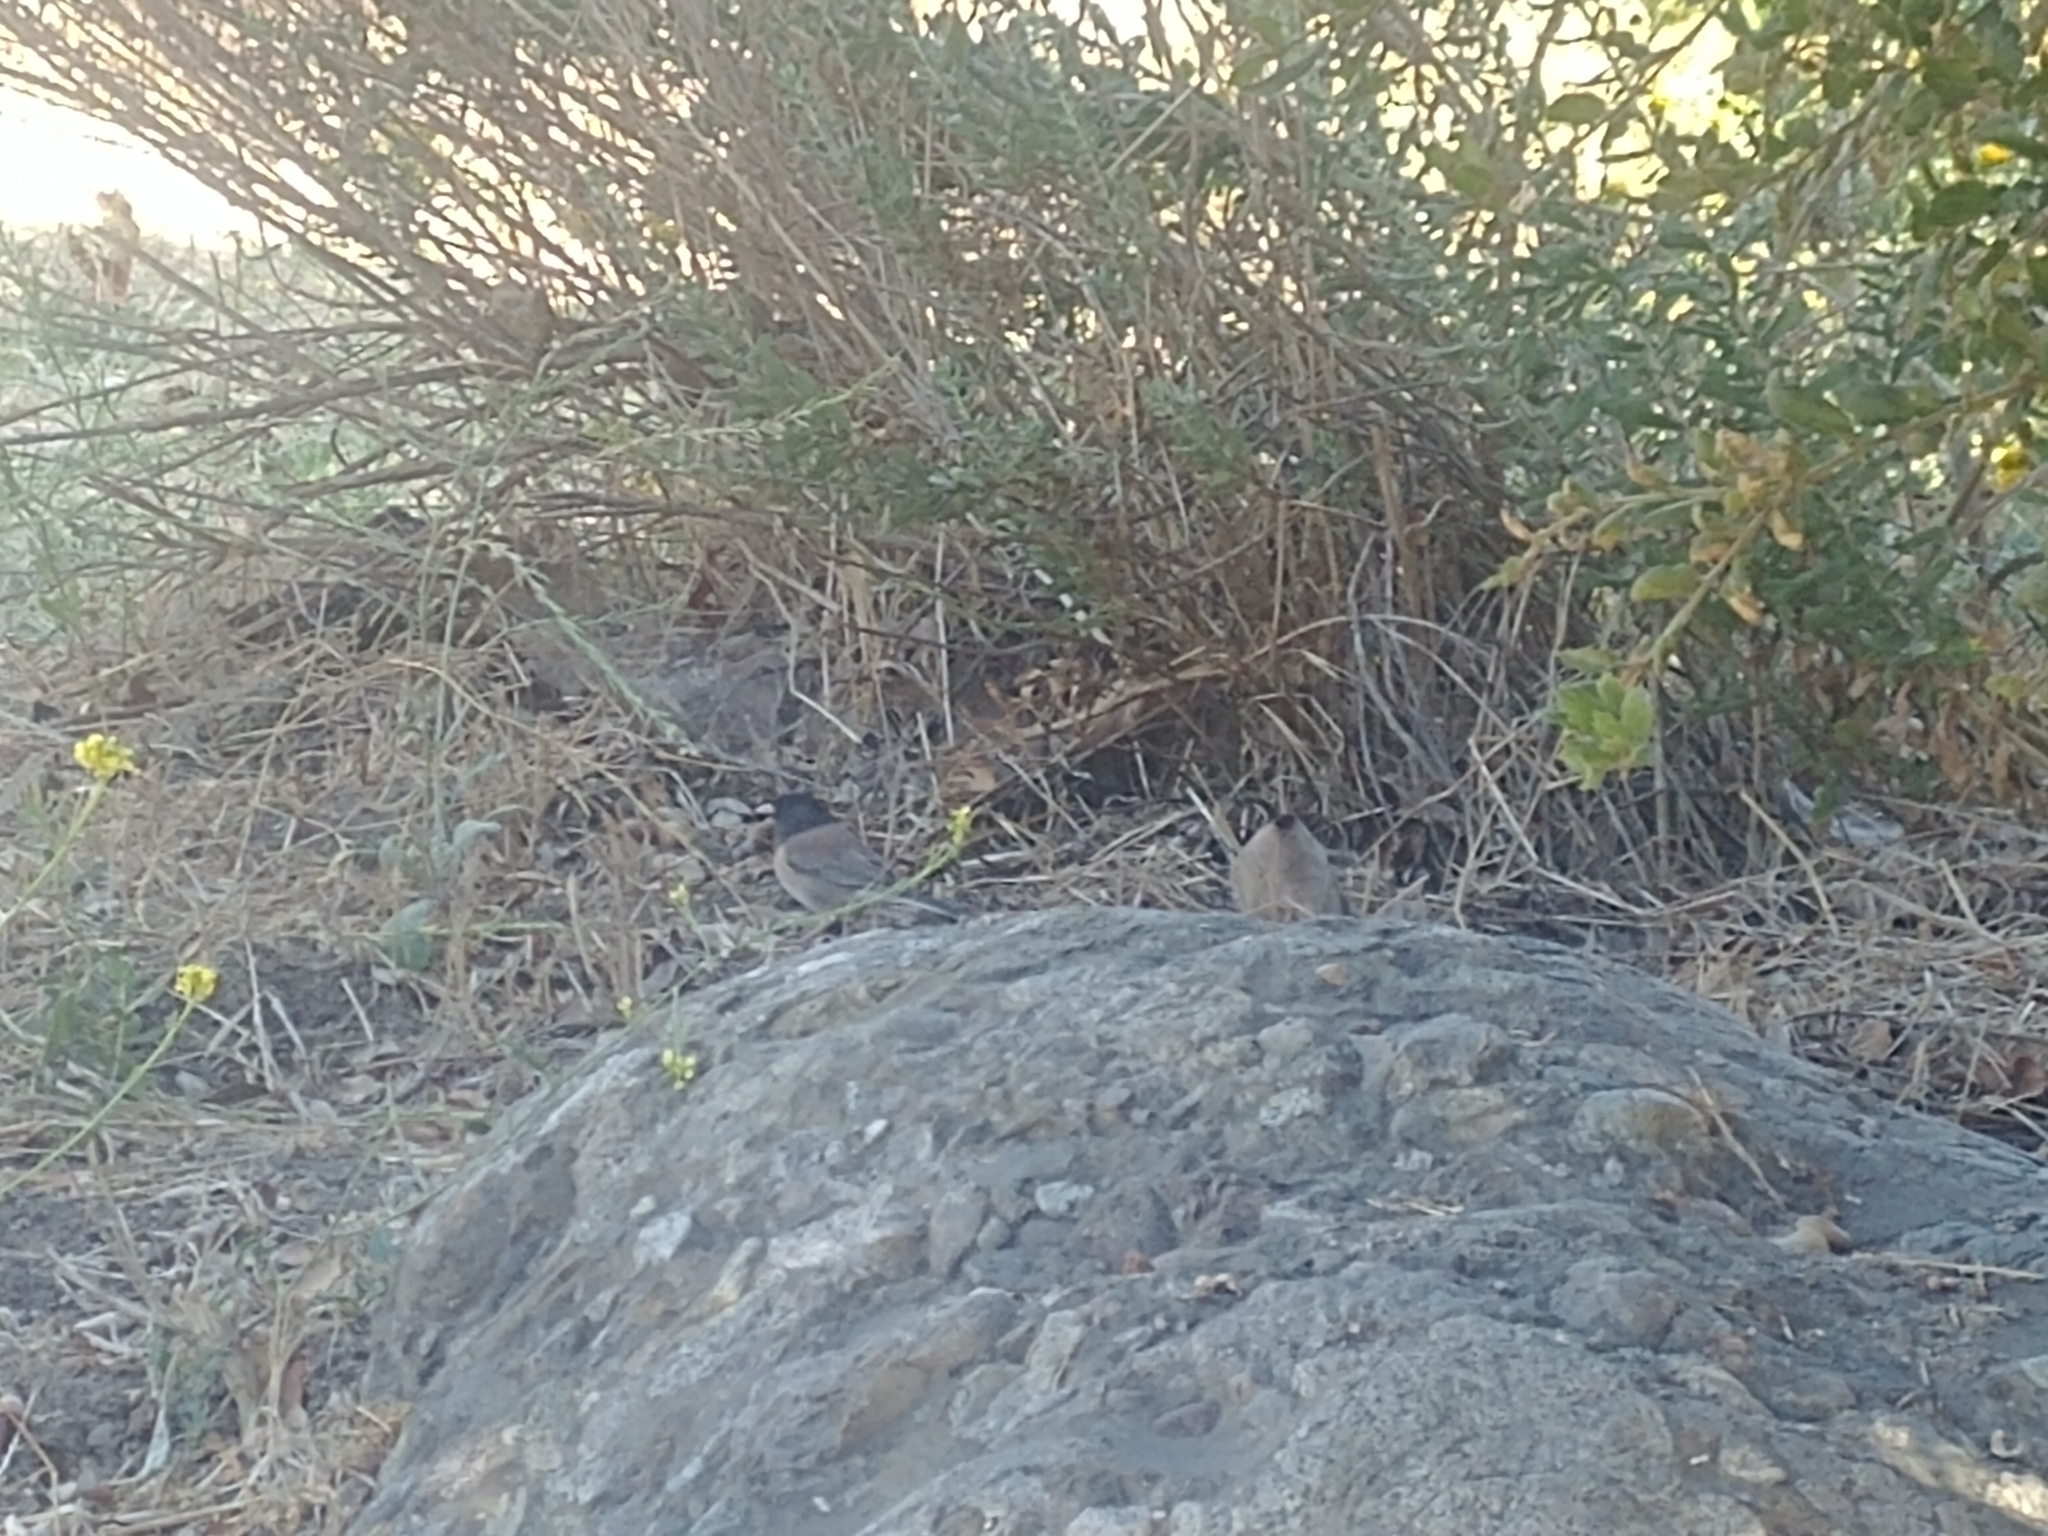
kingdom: Animalia
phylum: Chordata
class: Aves
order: Passeriformes
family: Passerellidae
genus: Junco
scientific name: Junco hyemalis
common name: Dark-eyed junco
